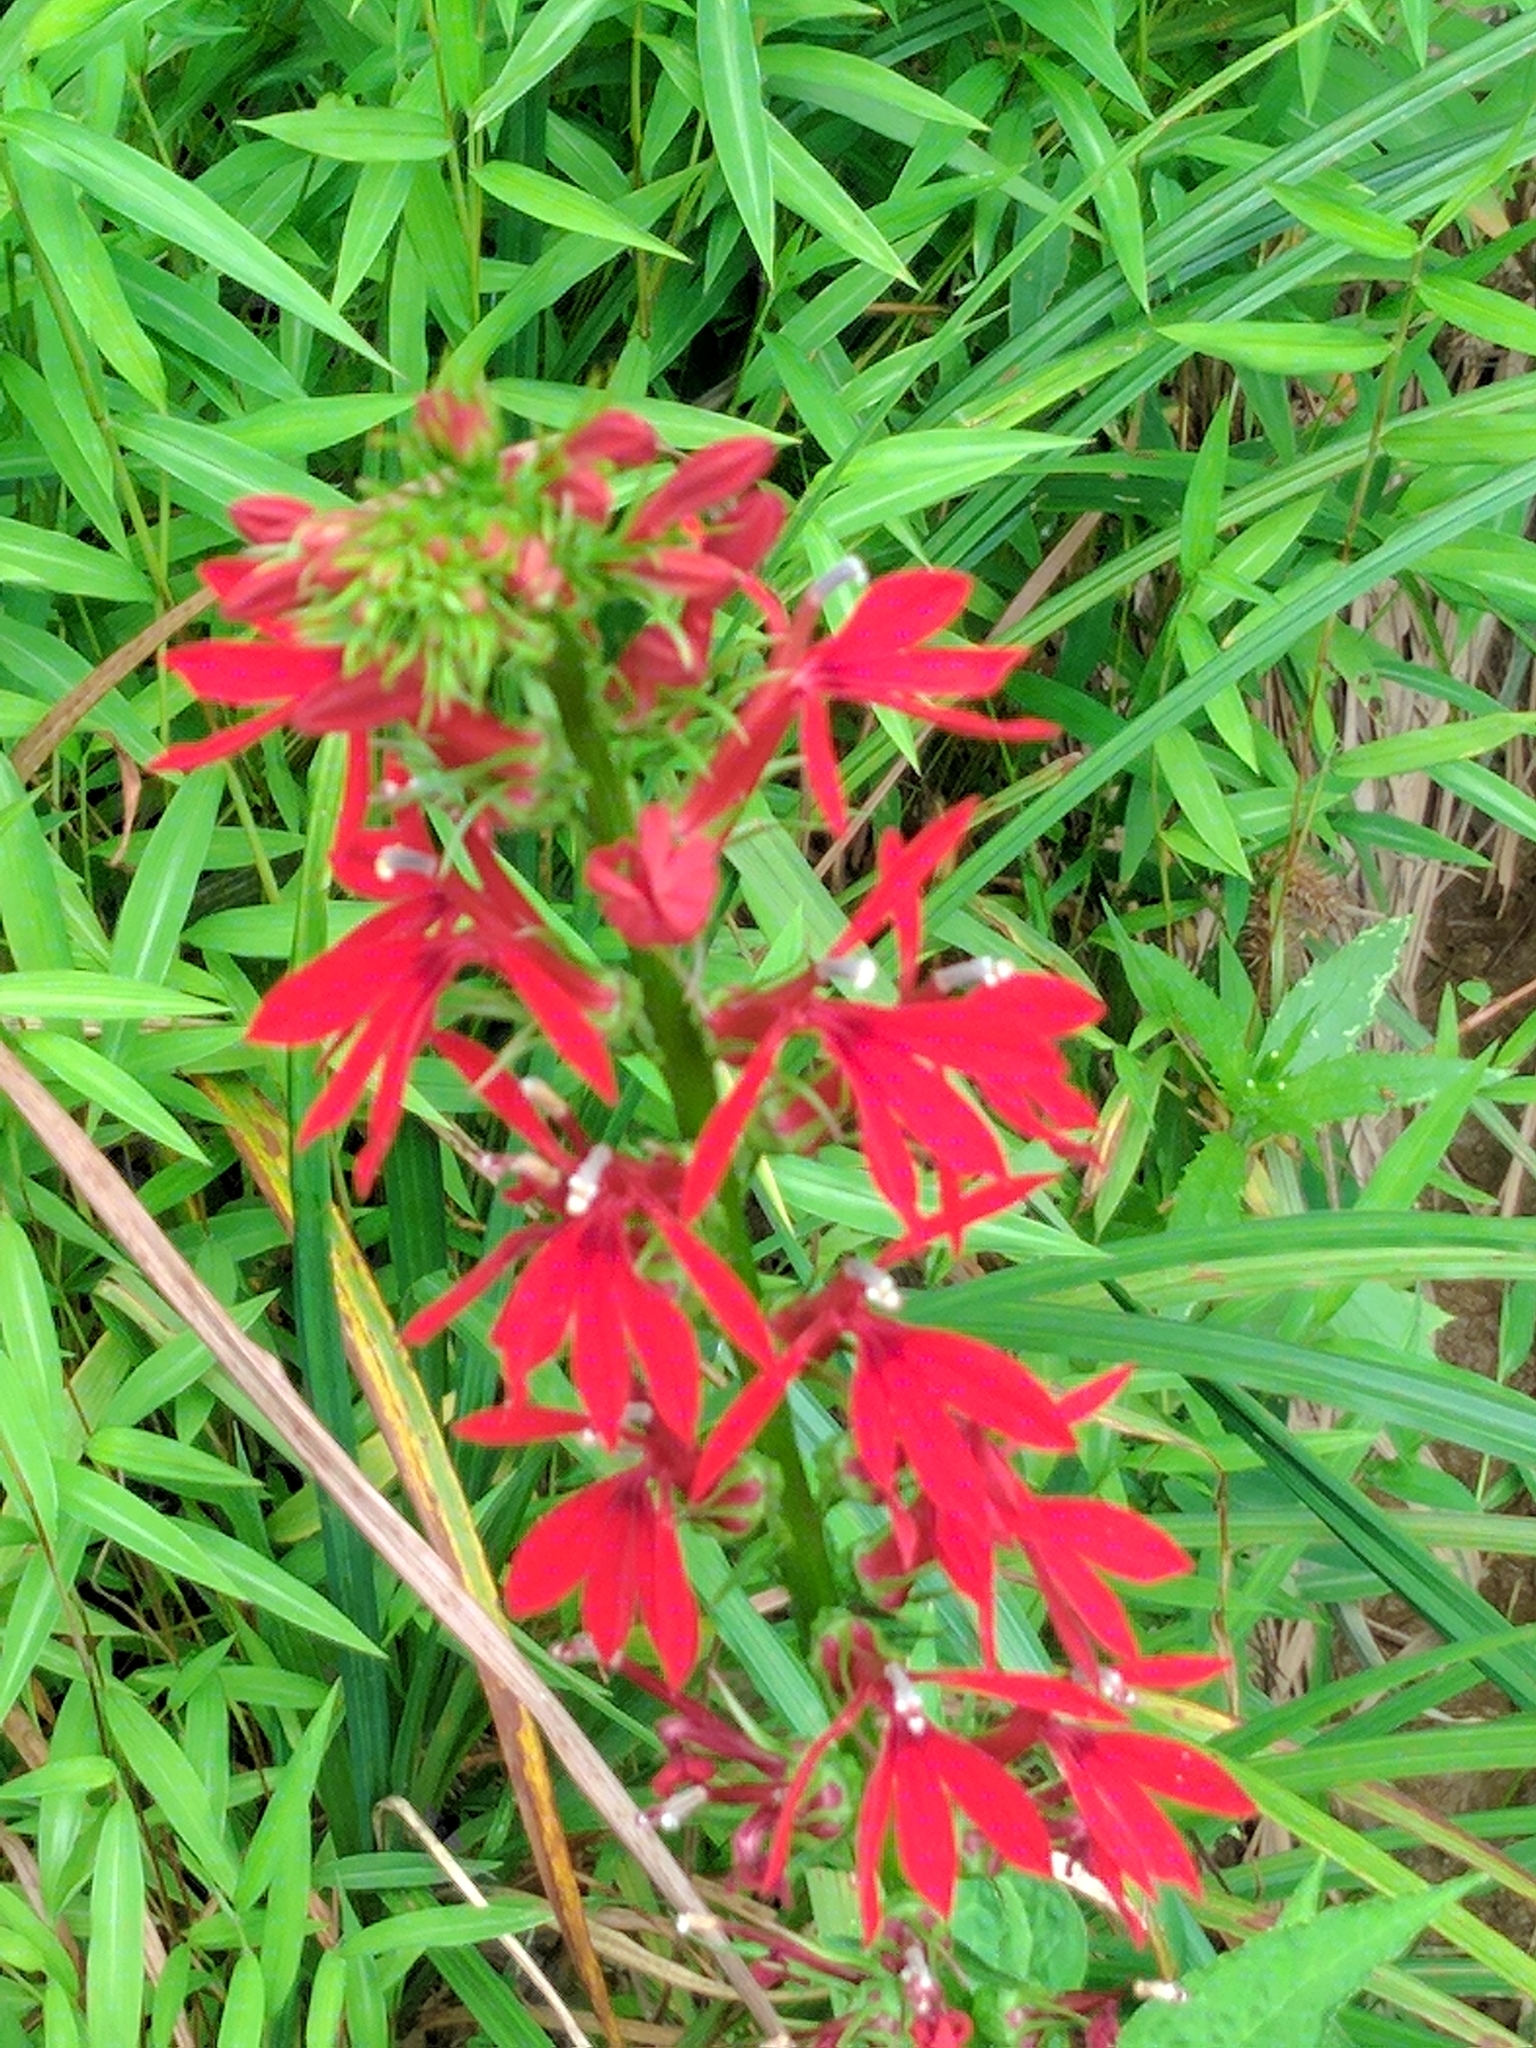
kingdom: Plantae
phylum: Tracheophyta
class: Magnoliopsida
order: Asterales
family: Campanulaceae
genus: Lobelia
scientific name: Lobelia cardinalis
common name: Cardinal flower
